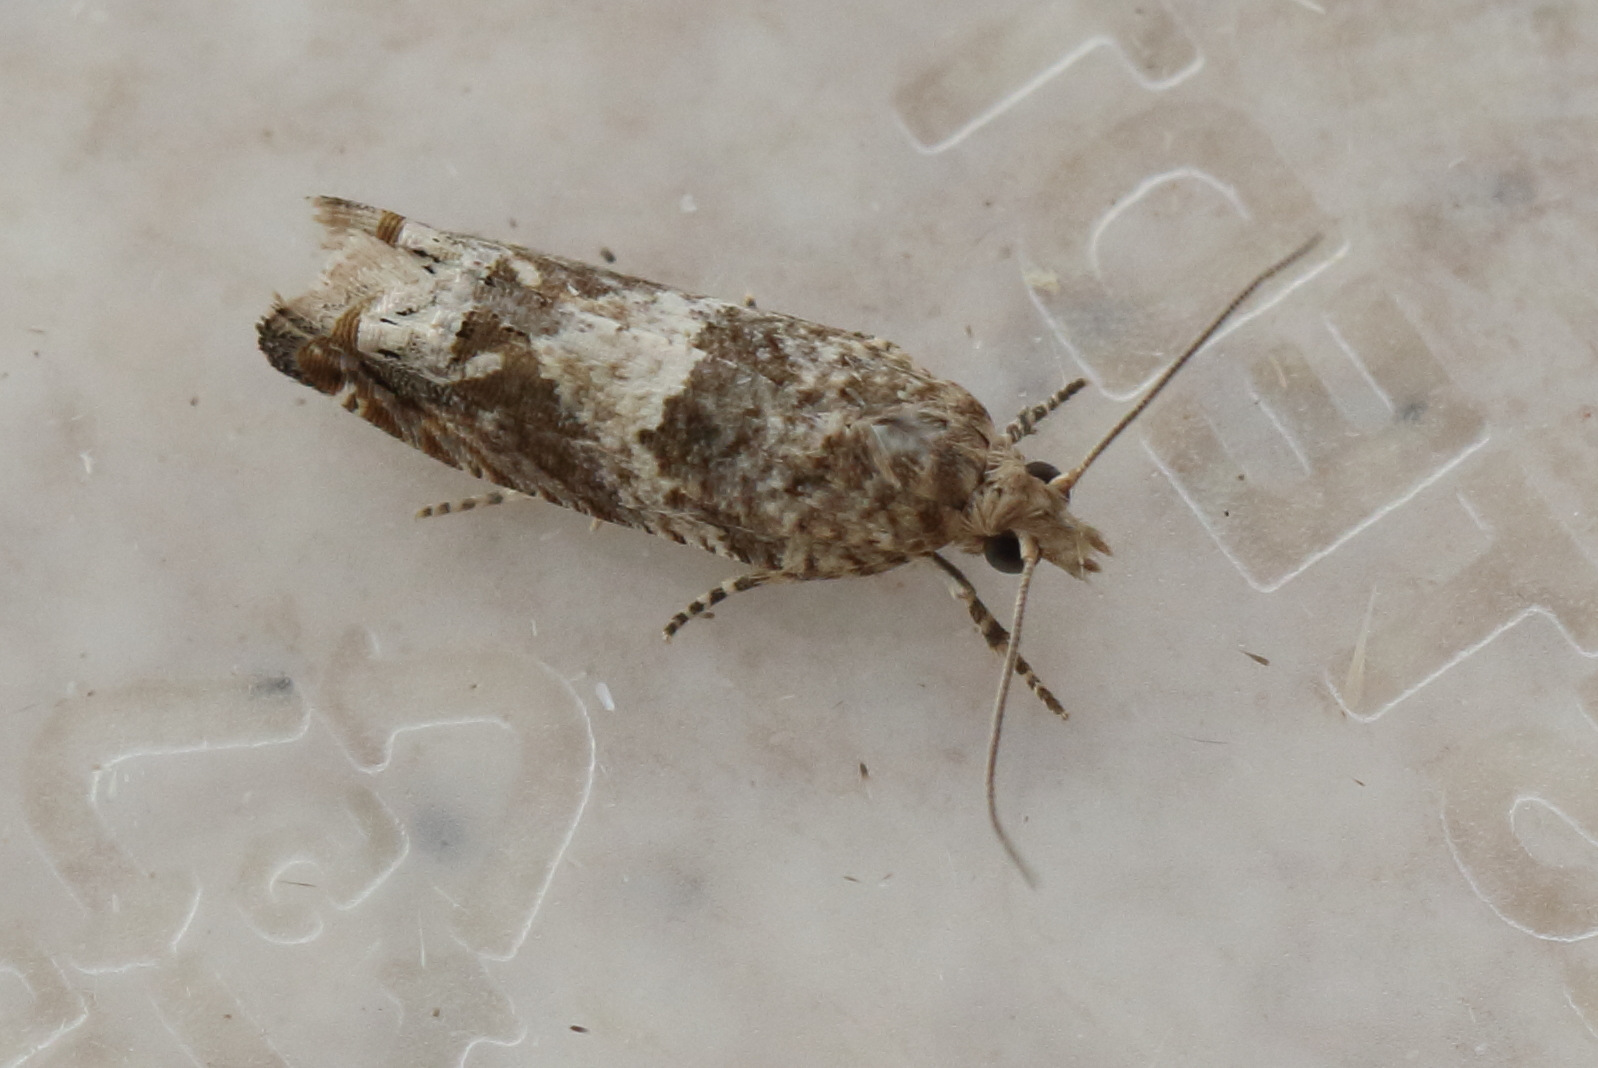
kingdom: Animalia
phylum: Arthropoda
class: Insecta
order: Lepidoptera
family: Tortricidae
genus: Crocidosema
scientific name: Crocidosema plebejana
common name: Southern bell
